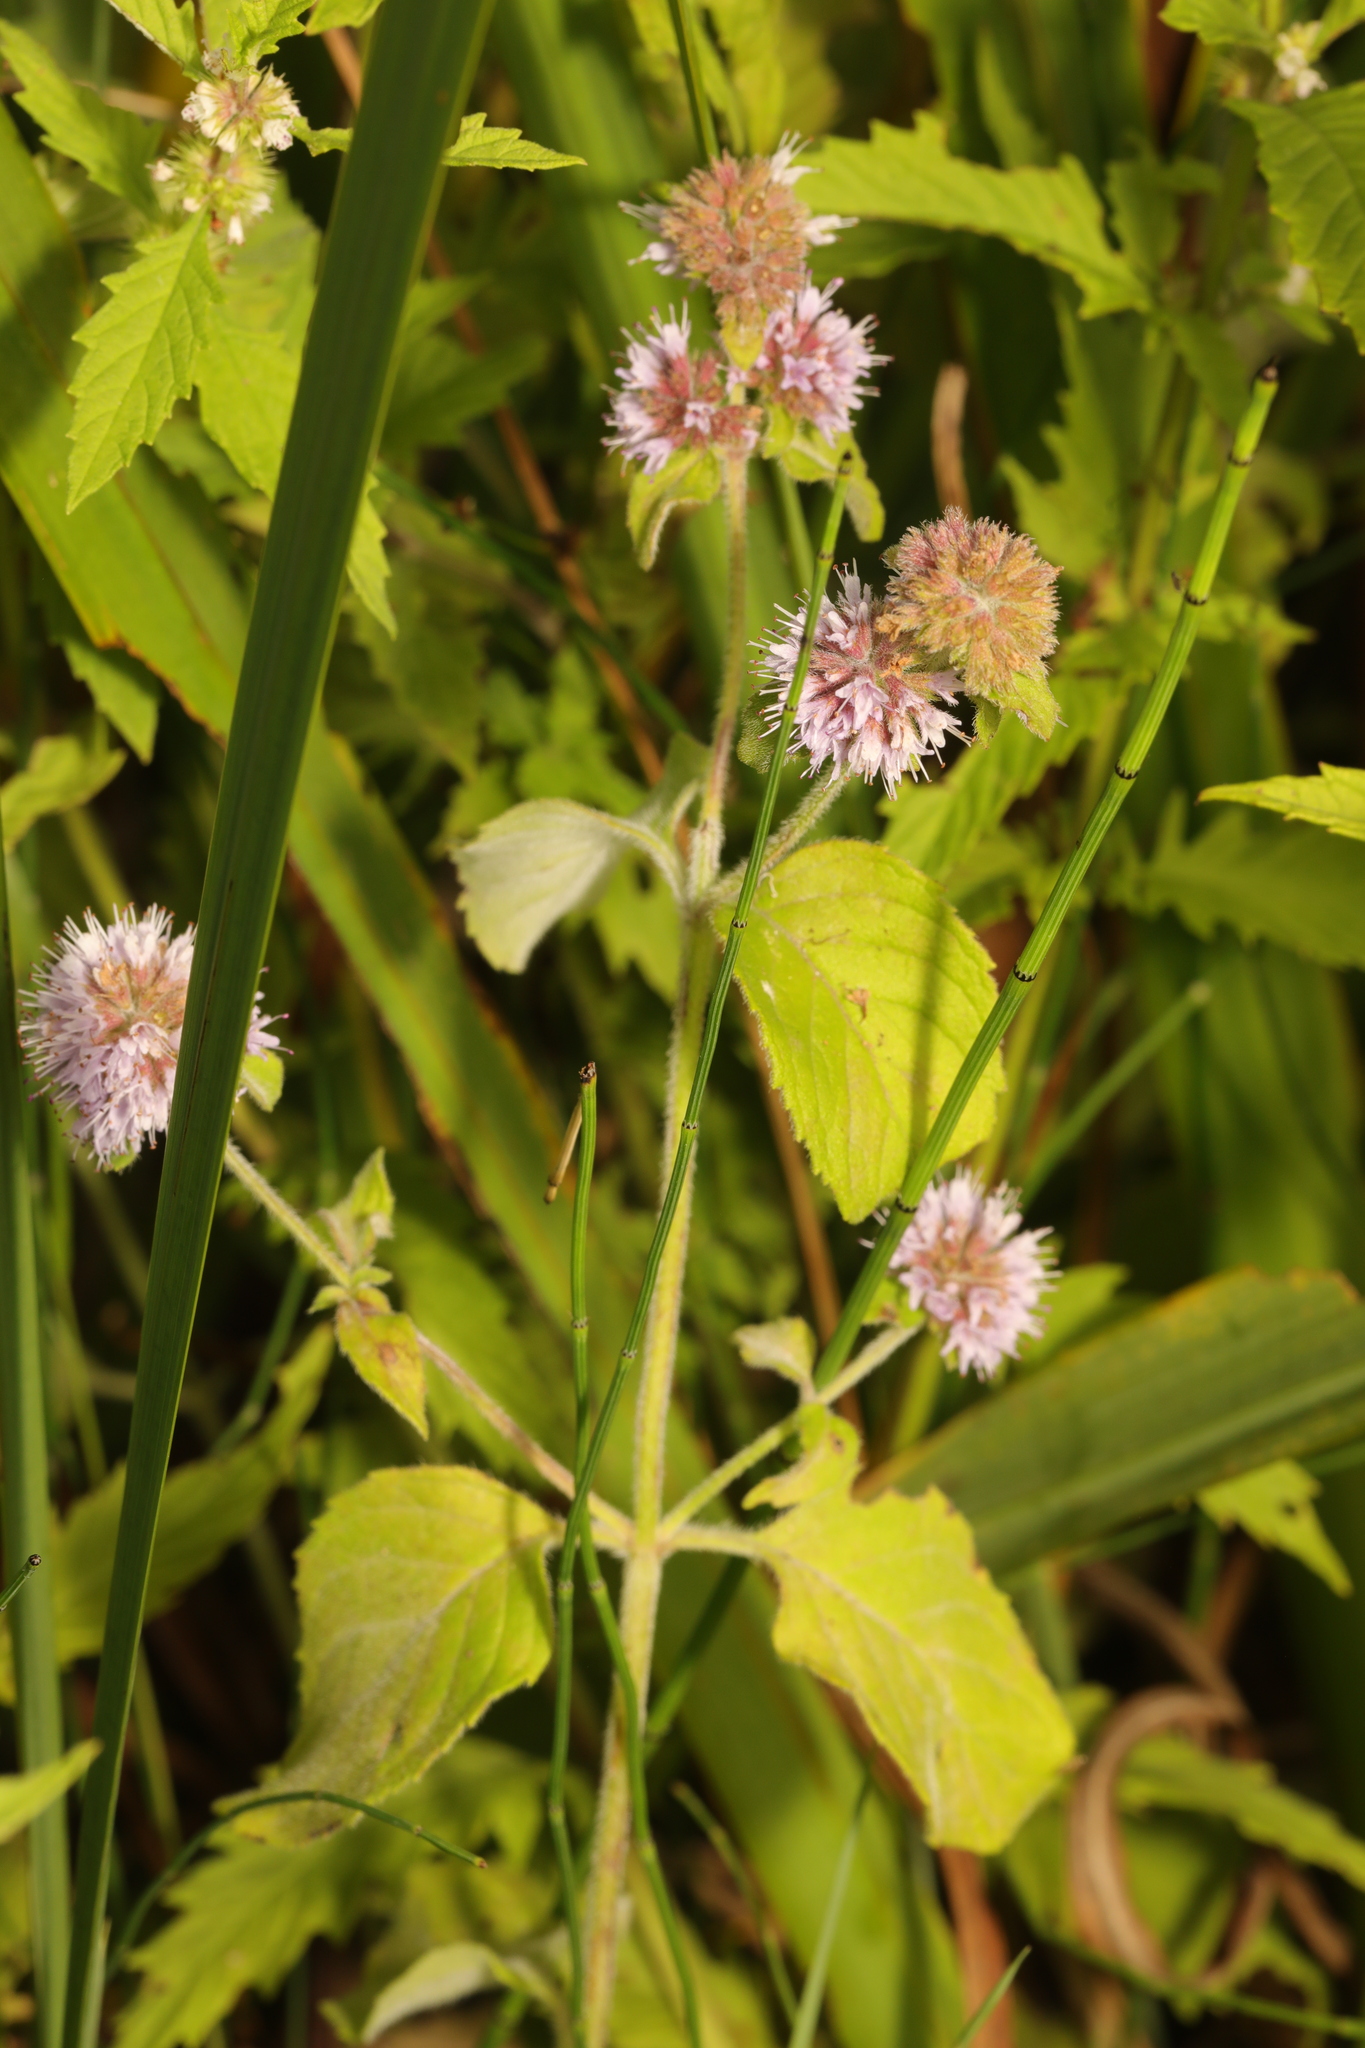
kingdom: Plantae
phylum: Tracheophyta
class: Magnoliopsida
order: Lamiales
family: Lamiaceae
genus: Mentha
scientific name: Mentha aquatica
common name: Water mint
